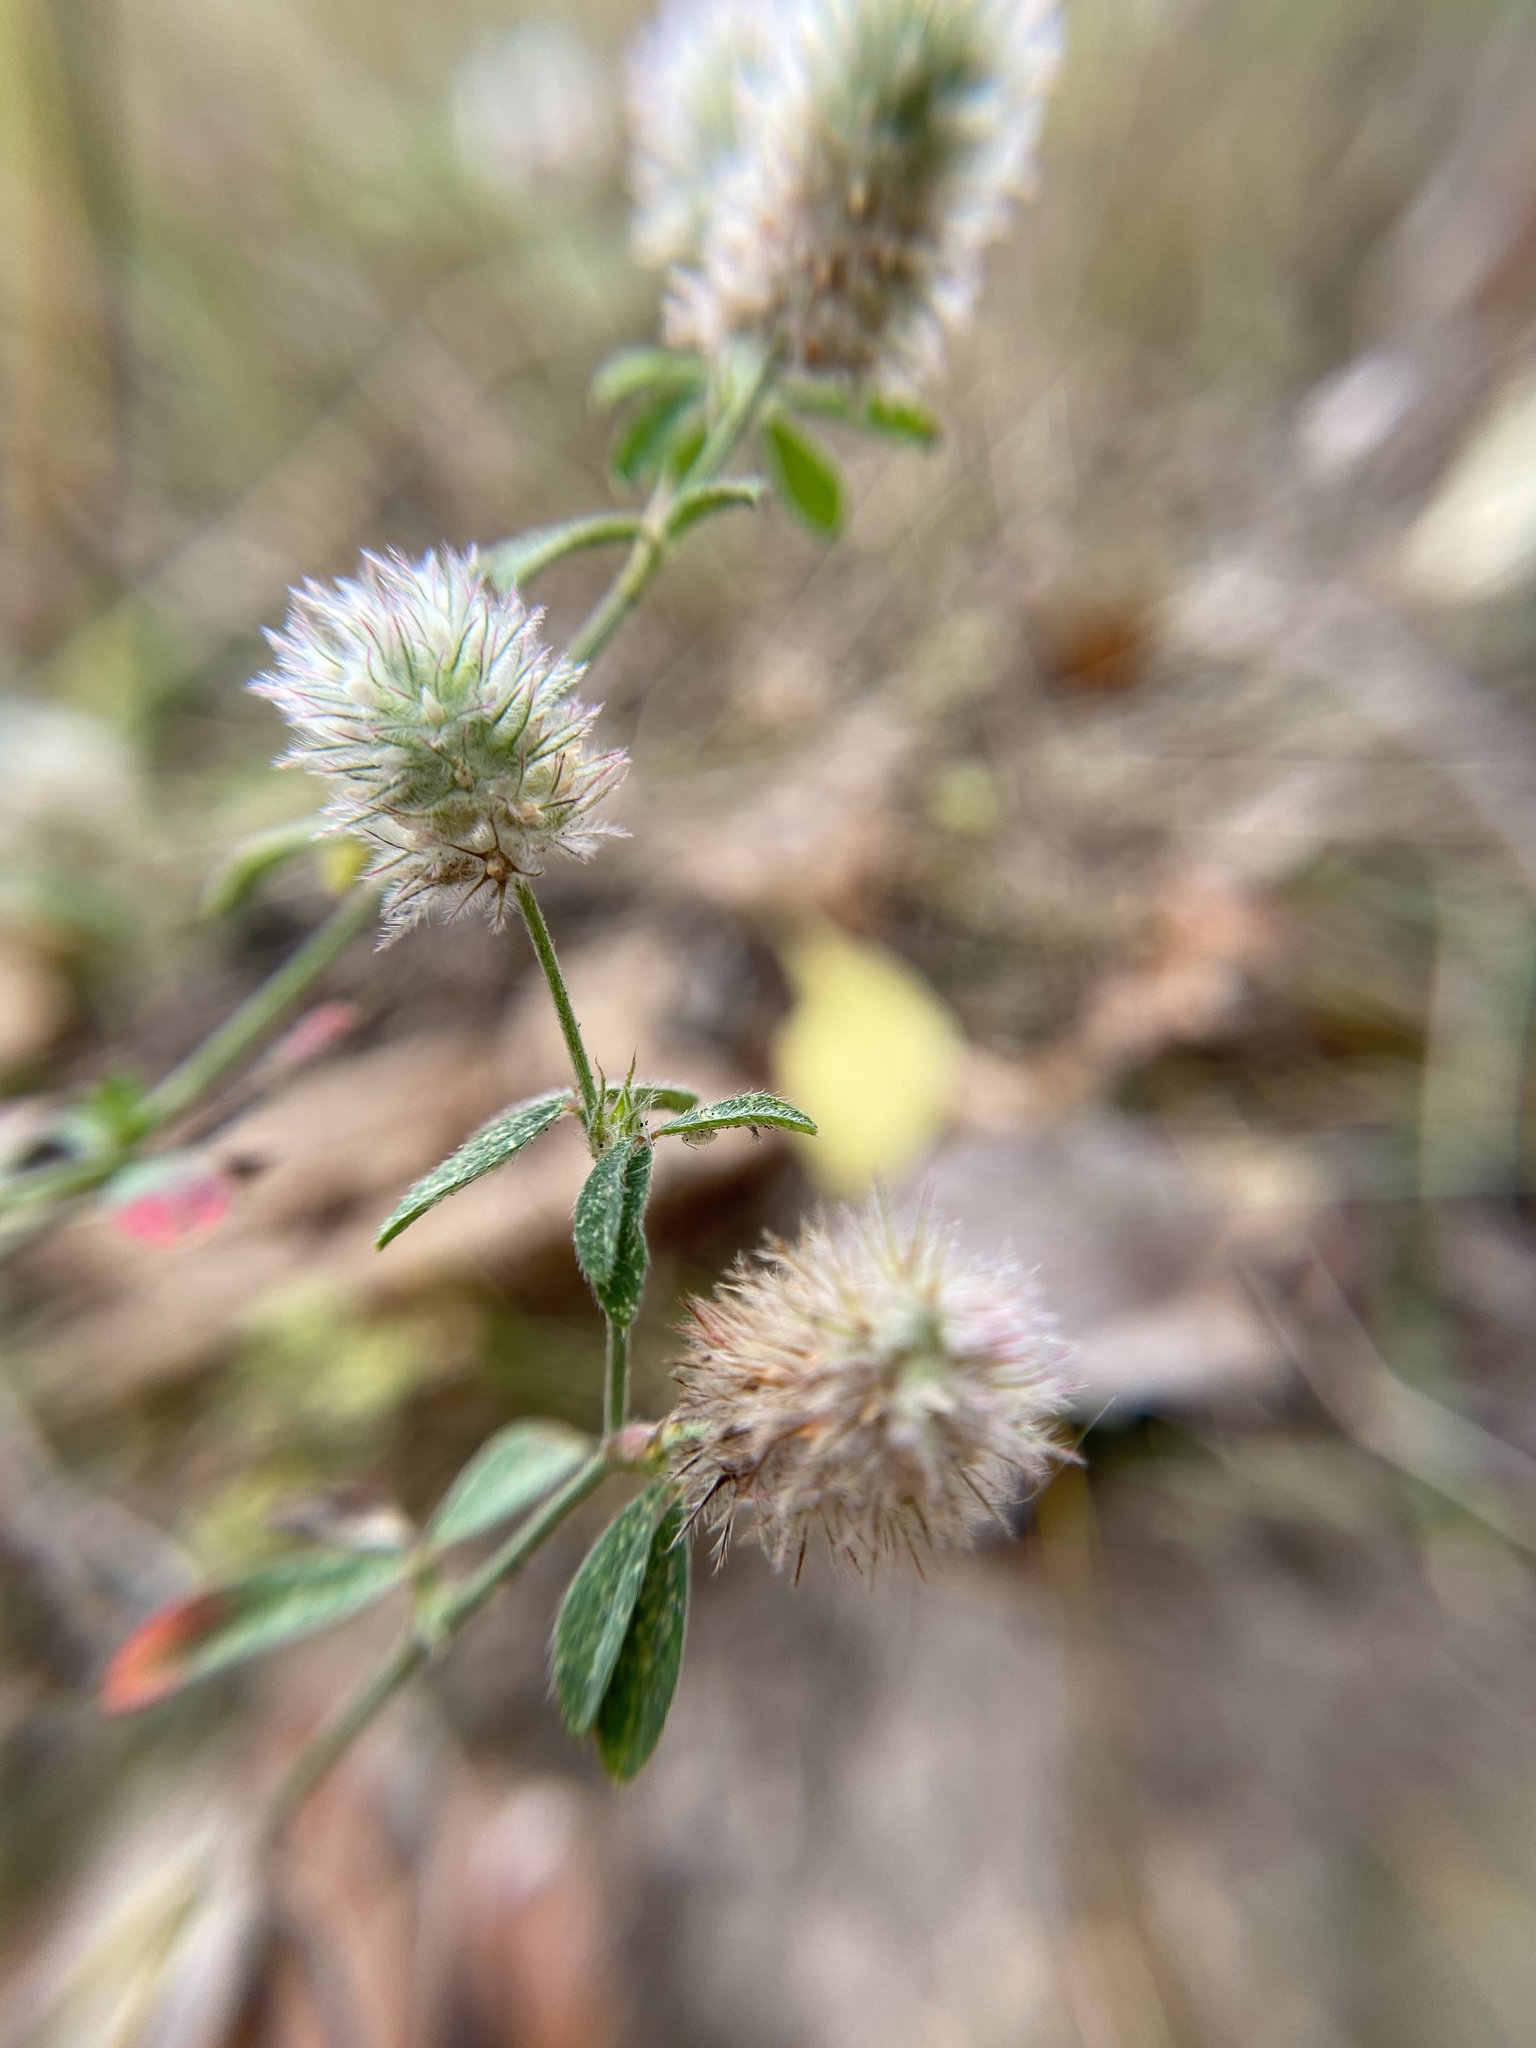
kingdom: Plantae
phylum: Tracheophyta
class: Magnoliopsida
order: Fabales
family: Fabaceae
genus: Trifolium
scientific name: Trifolium arvense
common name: Hare's-foot clover
